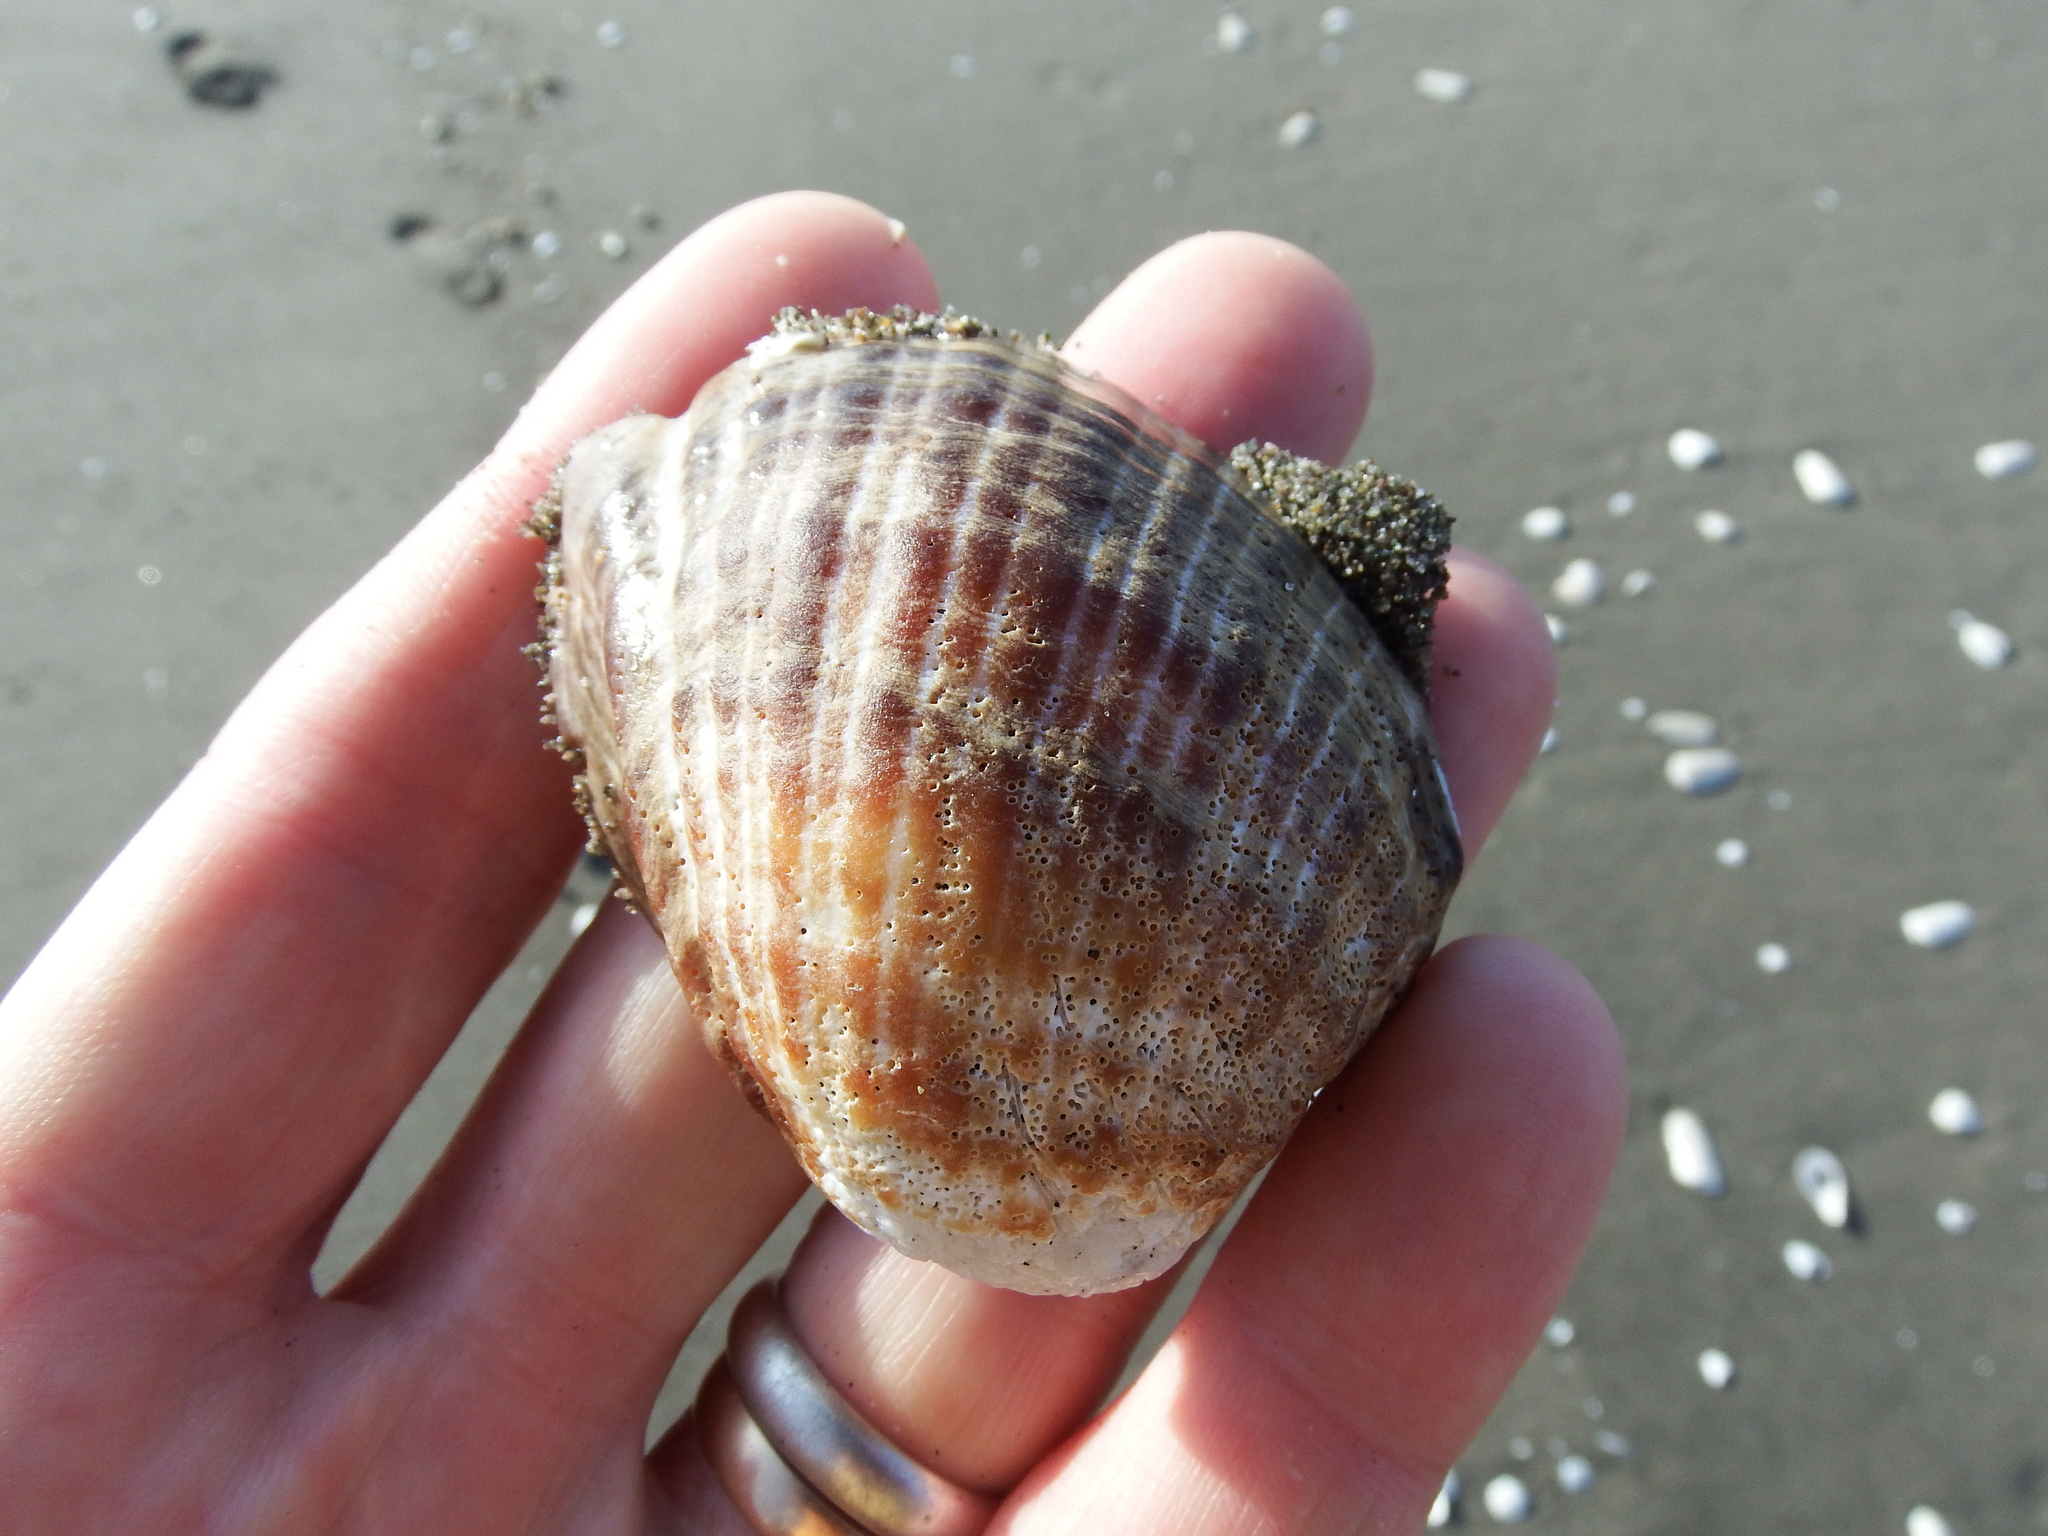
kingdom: Animalia
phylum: Mollusca
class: Gastropoda
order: Neogastropoda
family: Muricidae
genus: Concholepas
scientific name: Concholepas concholepas
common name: Chilean abalone
